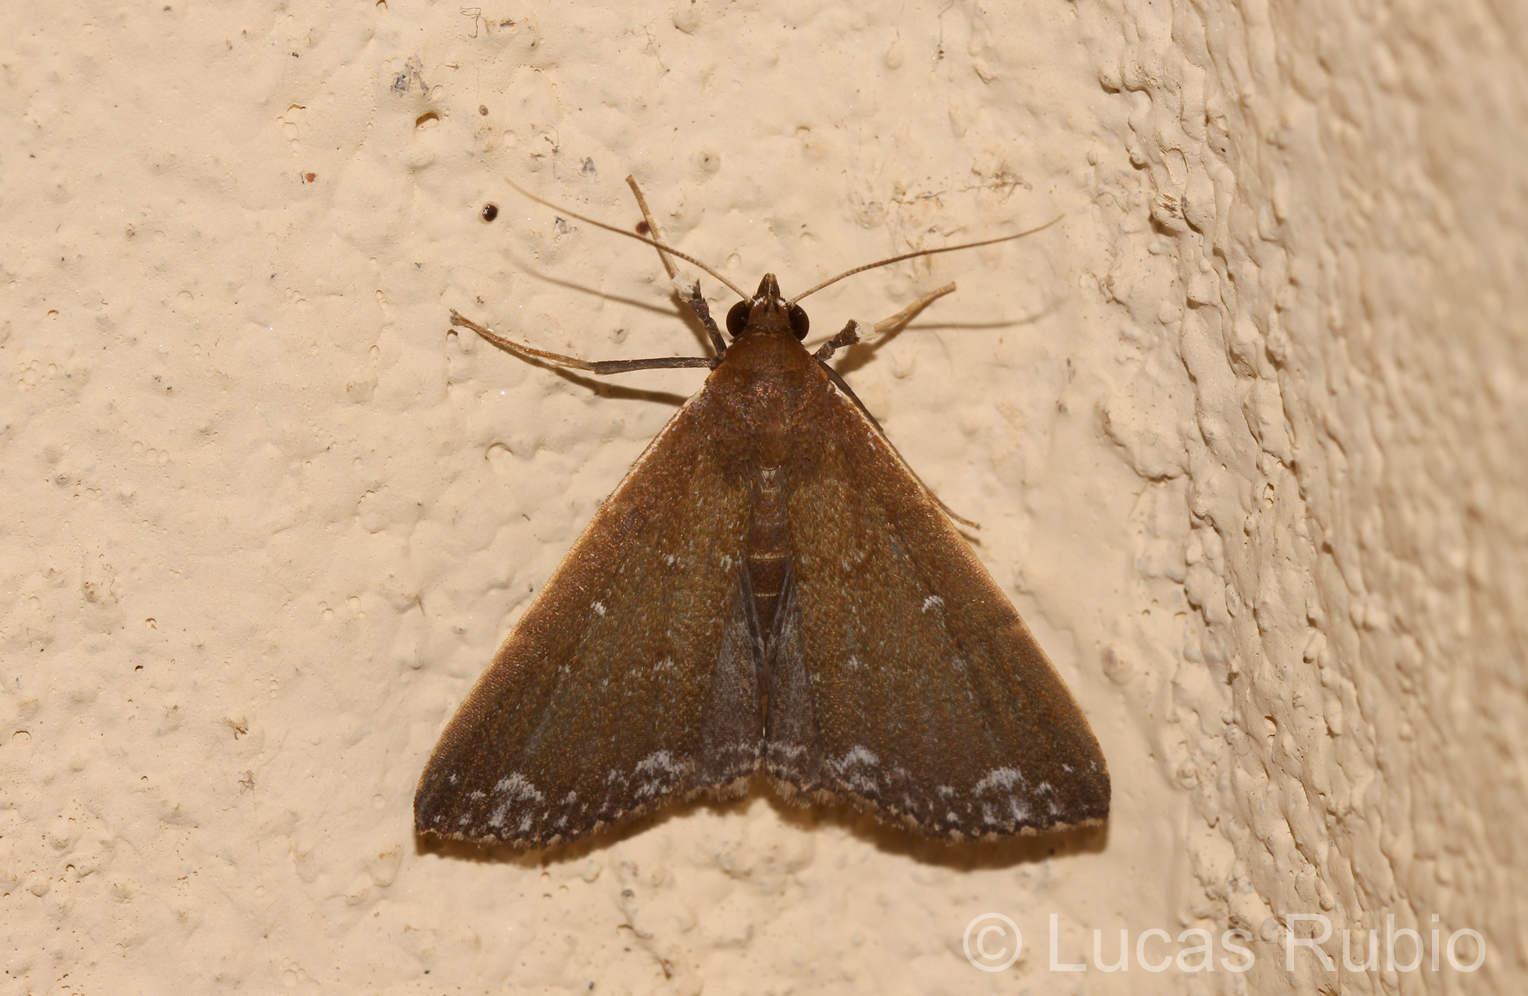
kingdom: Animalia
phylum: Arthropoda
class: Insecta
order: Lepidoptera
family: Erebidae
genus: Aristaria
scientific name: Aristaria theroalis
